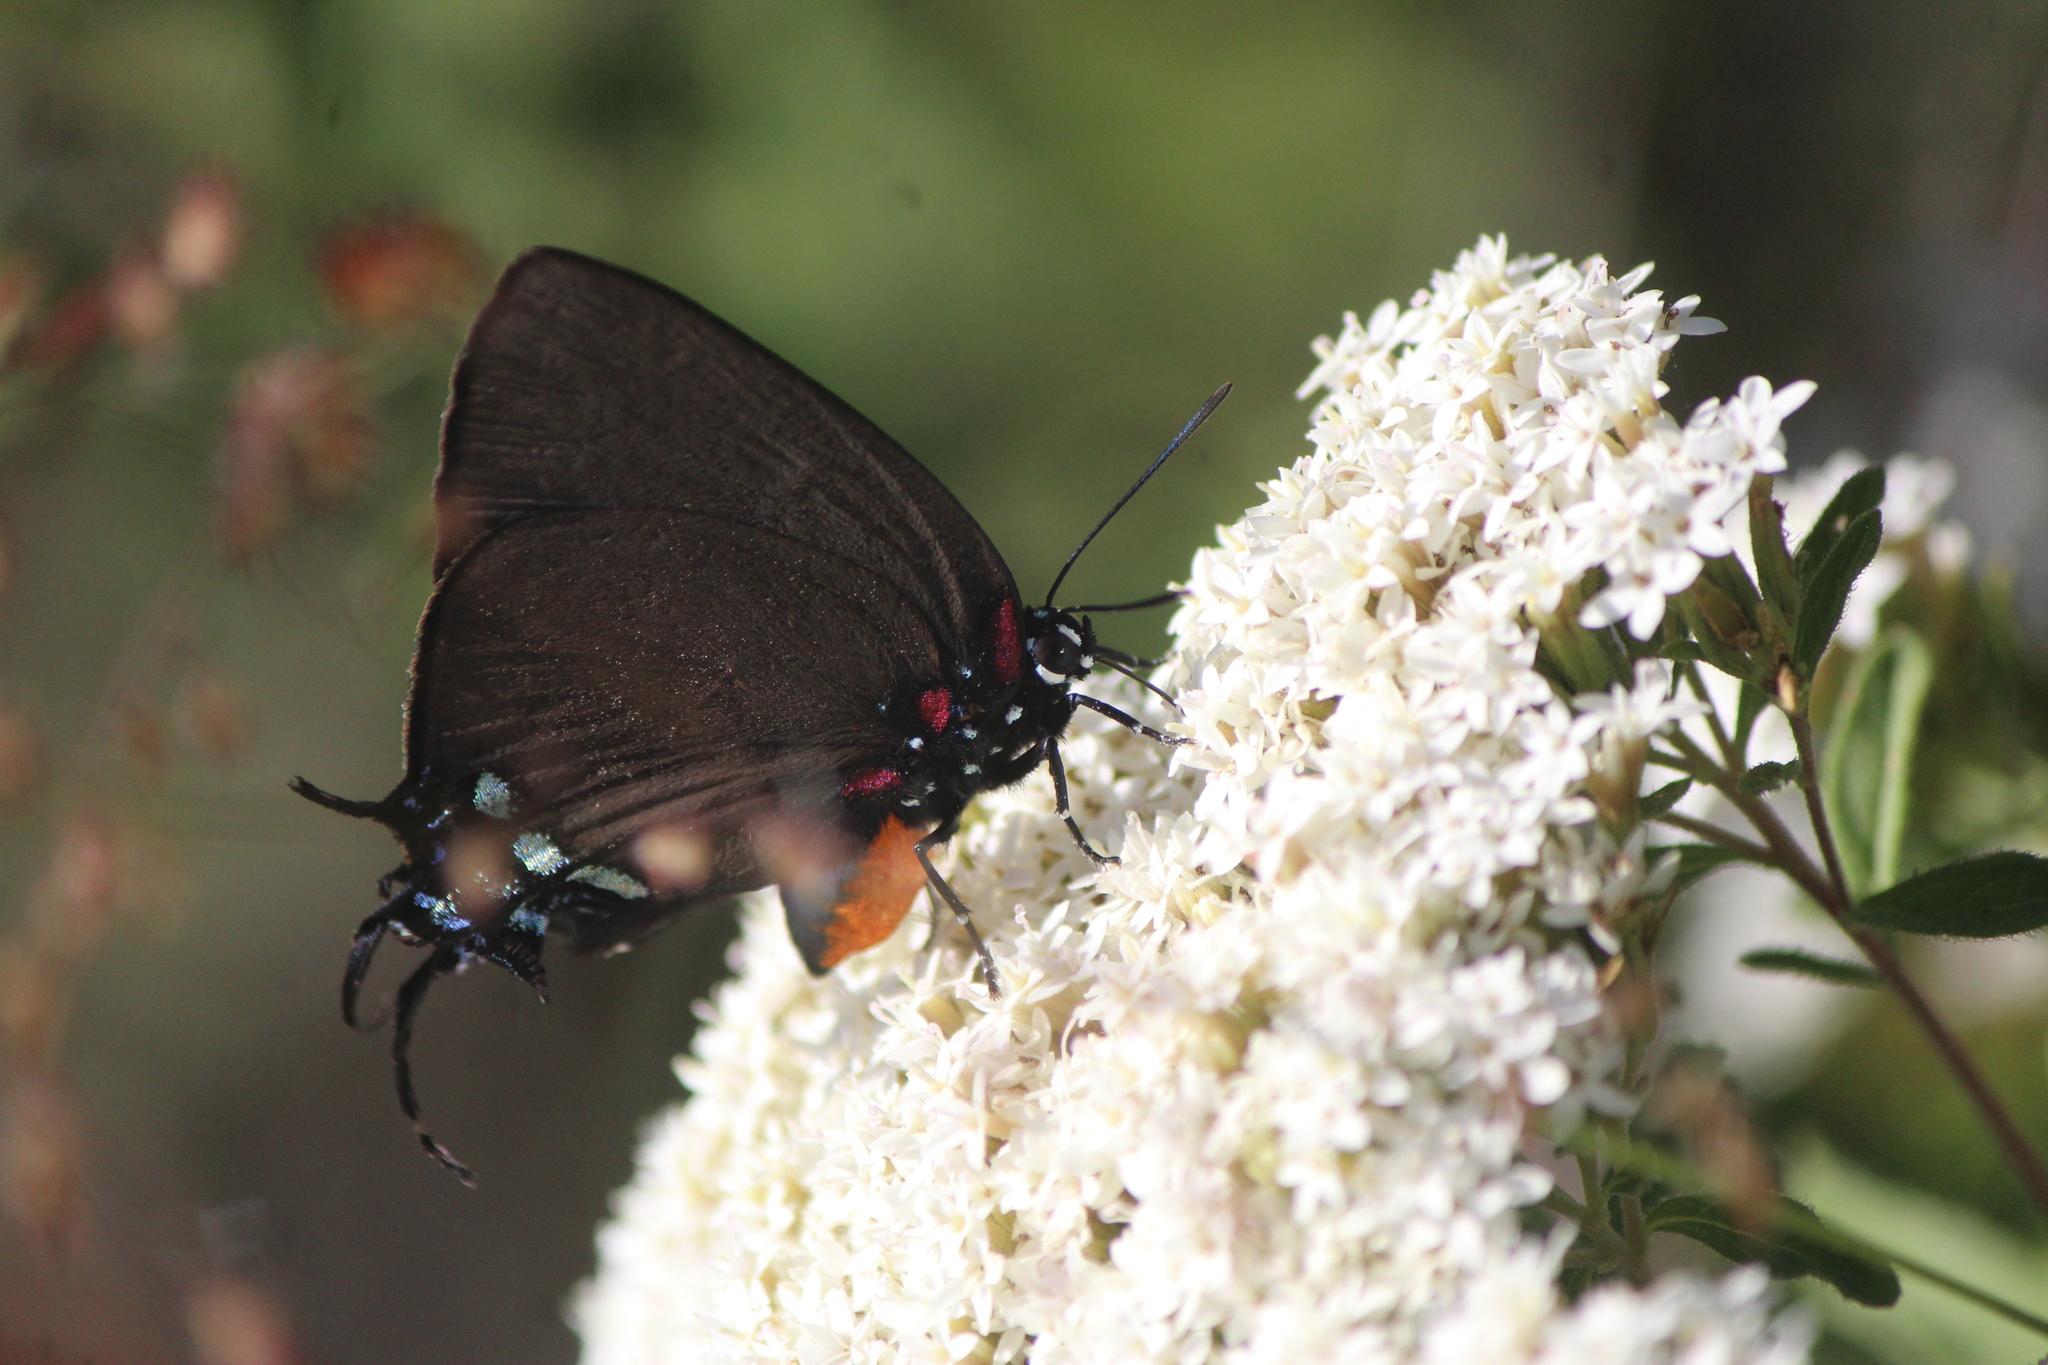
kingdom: Animalia
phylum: Arthropoda
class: Insecta
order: Lepidoptera
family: Lycaenidae
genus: Atlides
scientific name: Atlides halesus
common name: Great purple hairstreak
